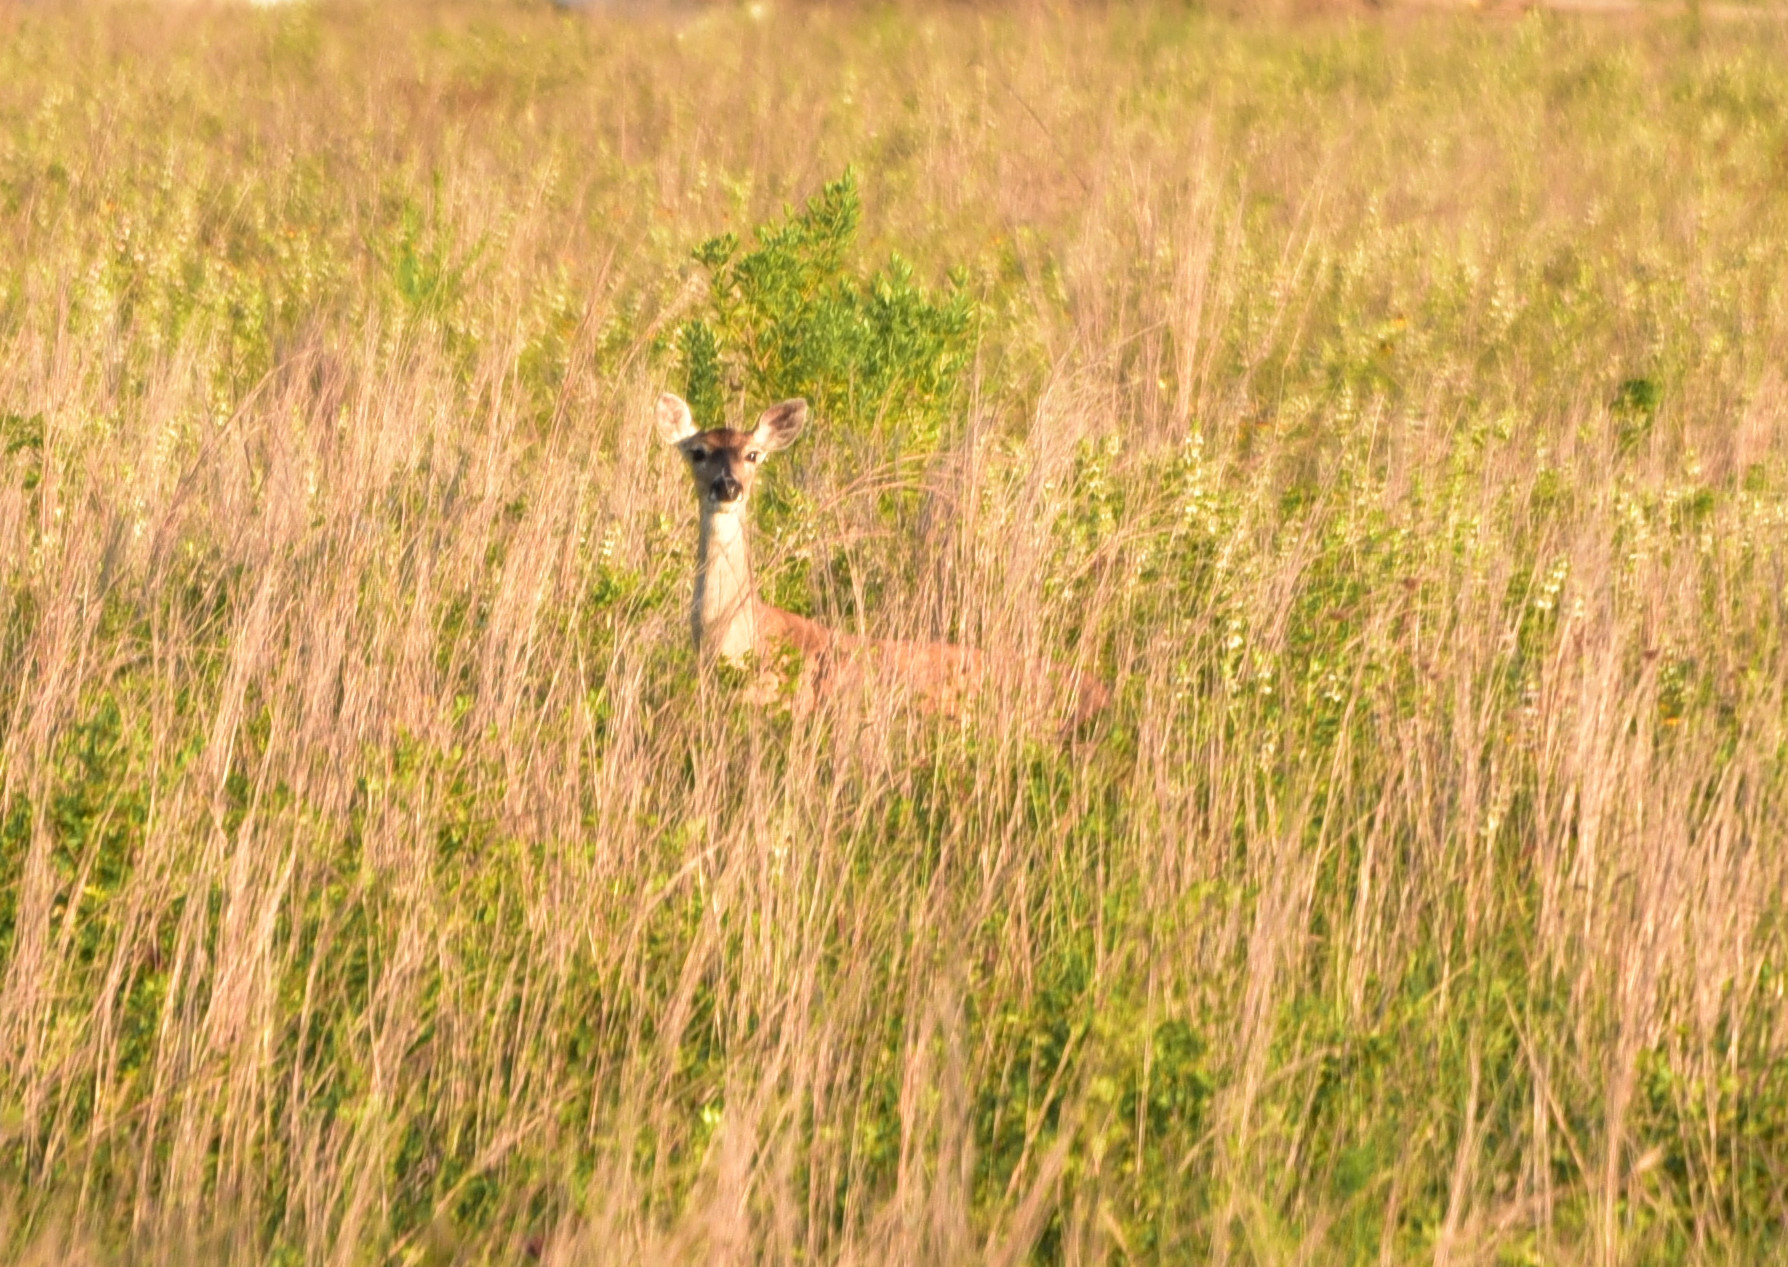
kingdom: Animalia
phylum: Chordata
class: Mammalia
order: Artiodactyla
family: Cervidae
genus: Odocoileus
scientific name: Odocoileus virginianus
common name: White-tailed deer
